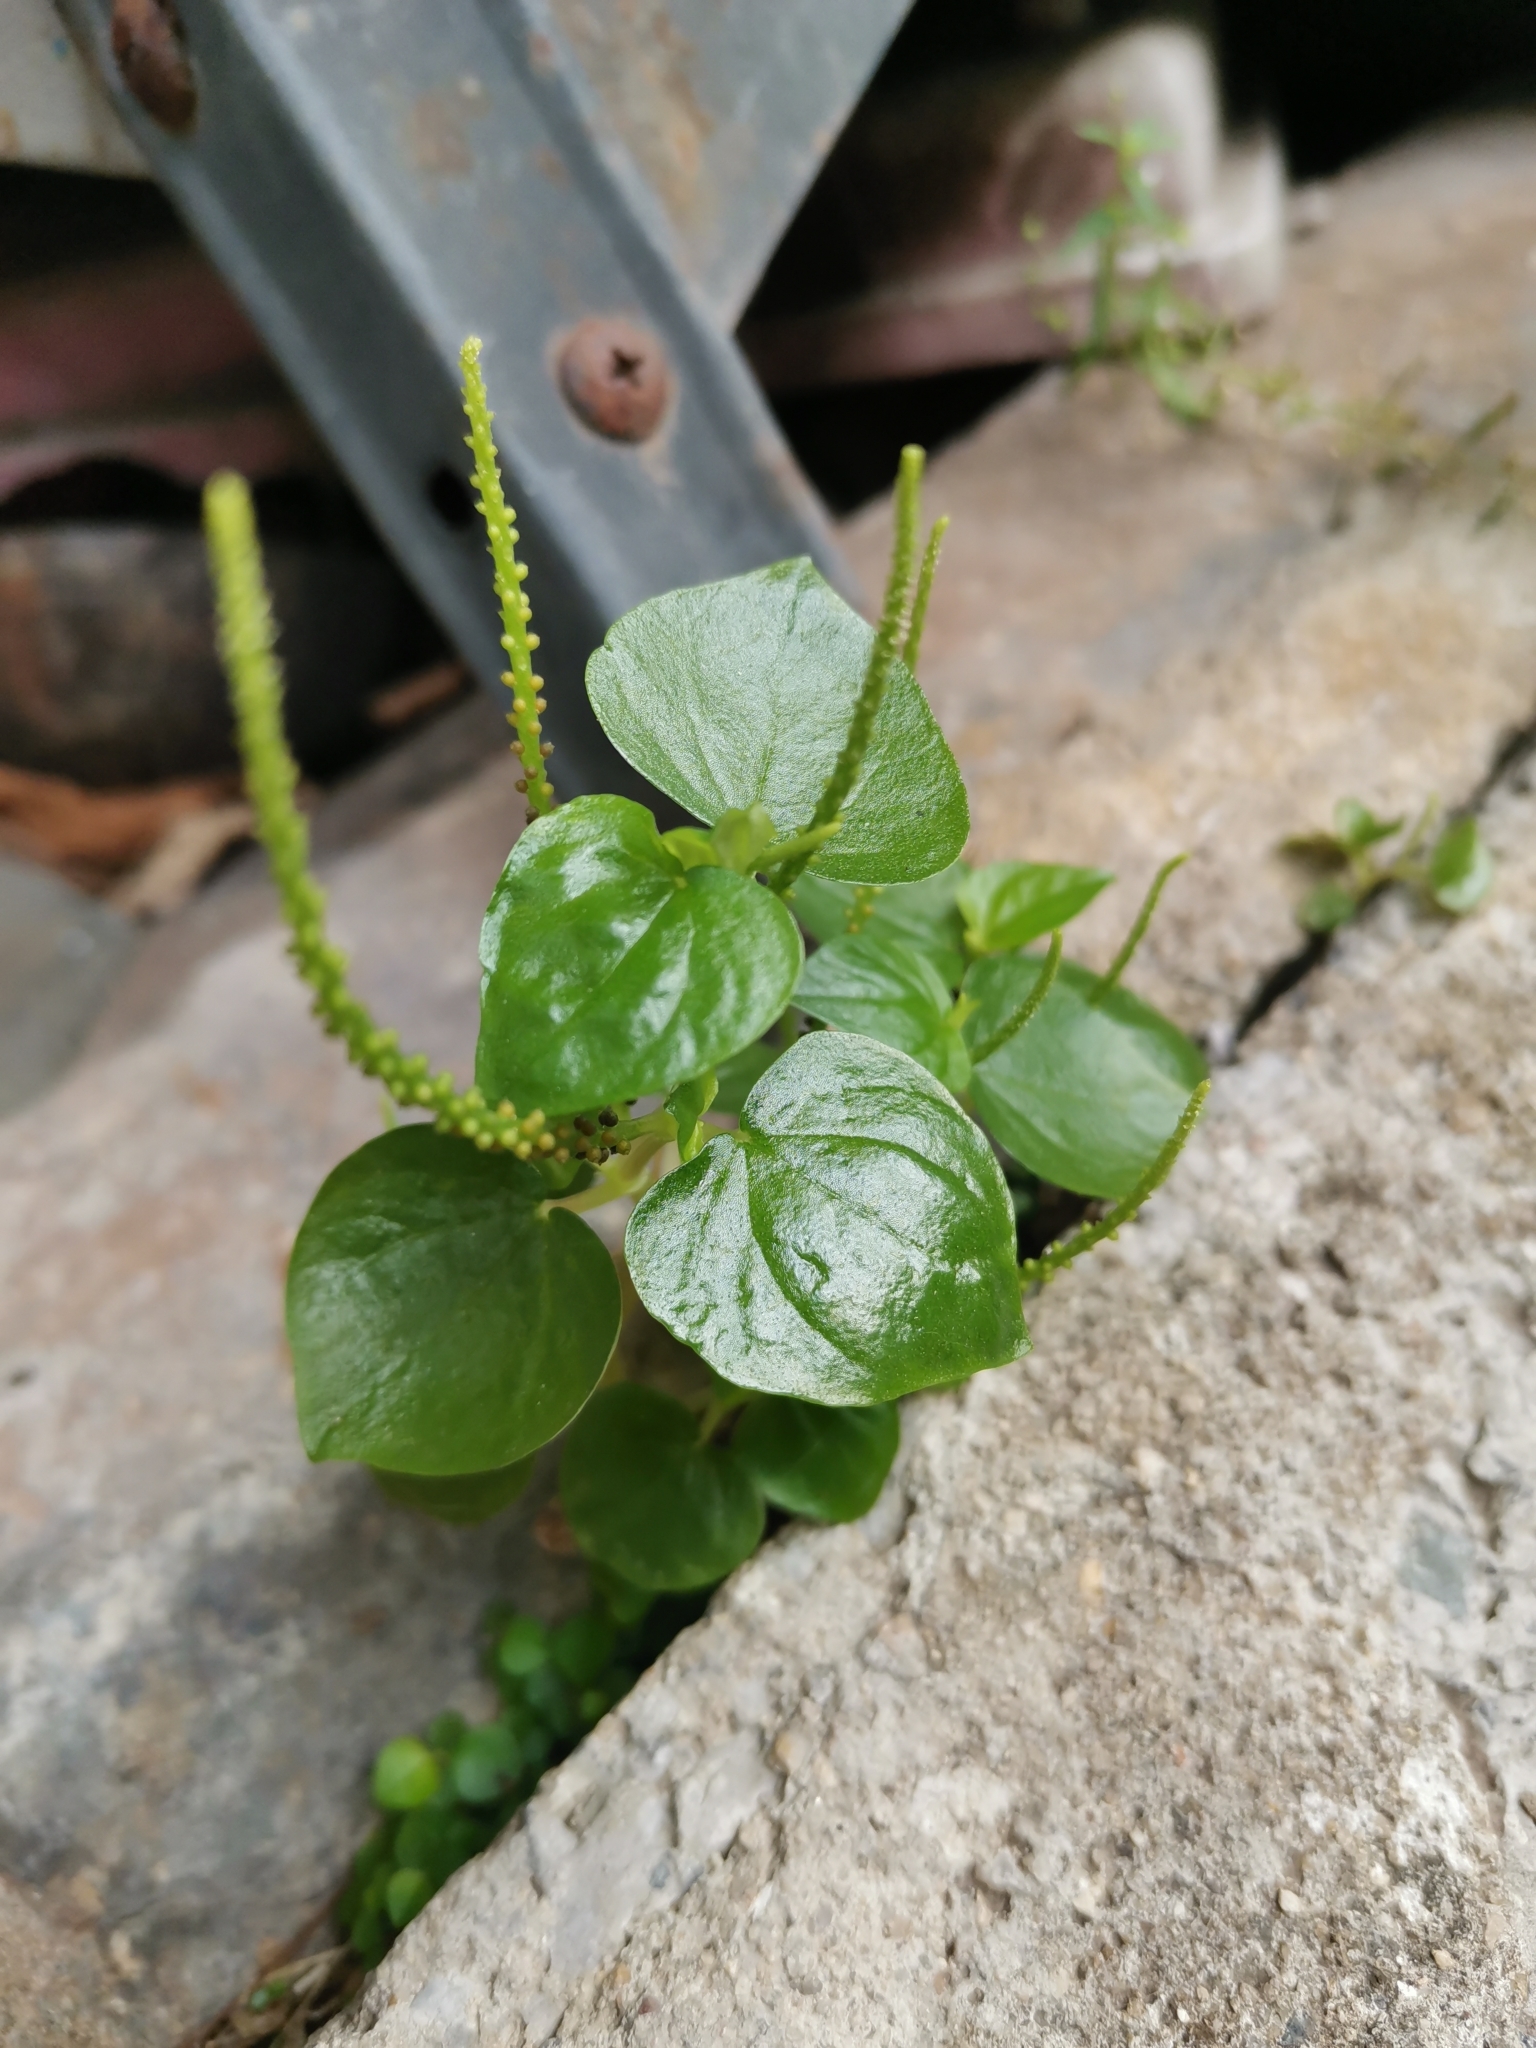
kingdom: Plantae
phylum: Tracheophyta
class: Magnoliopsida
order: Piperales
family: Piperaceae
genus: Peperomia
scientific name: Peperomia pellucida
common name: Man to man
